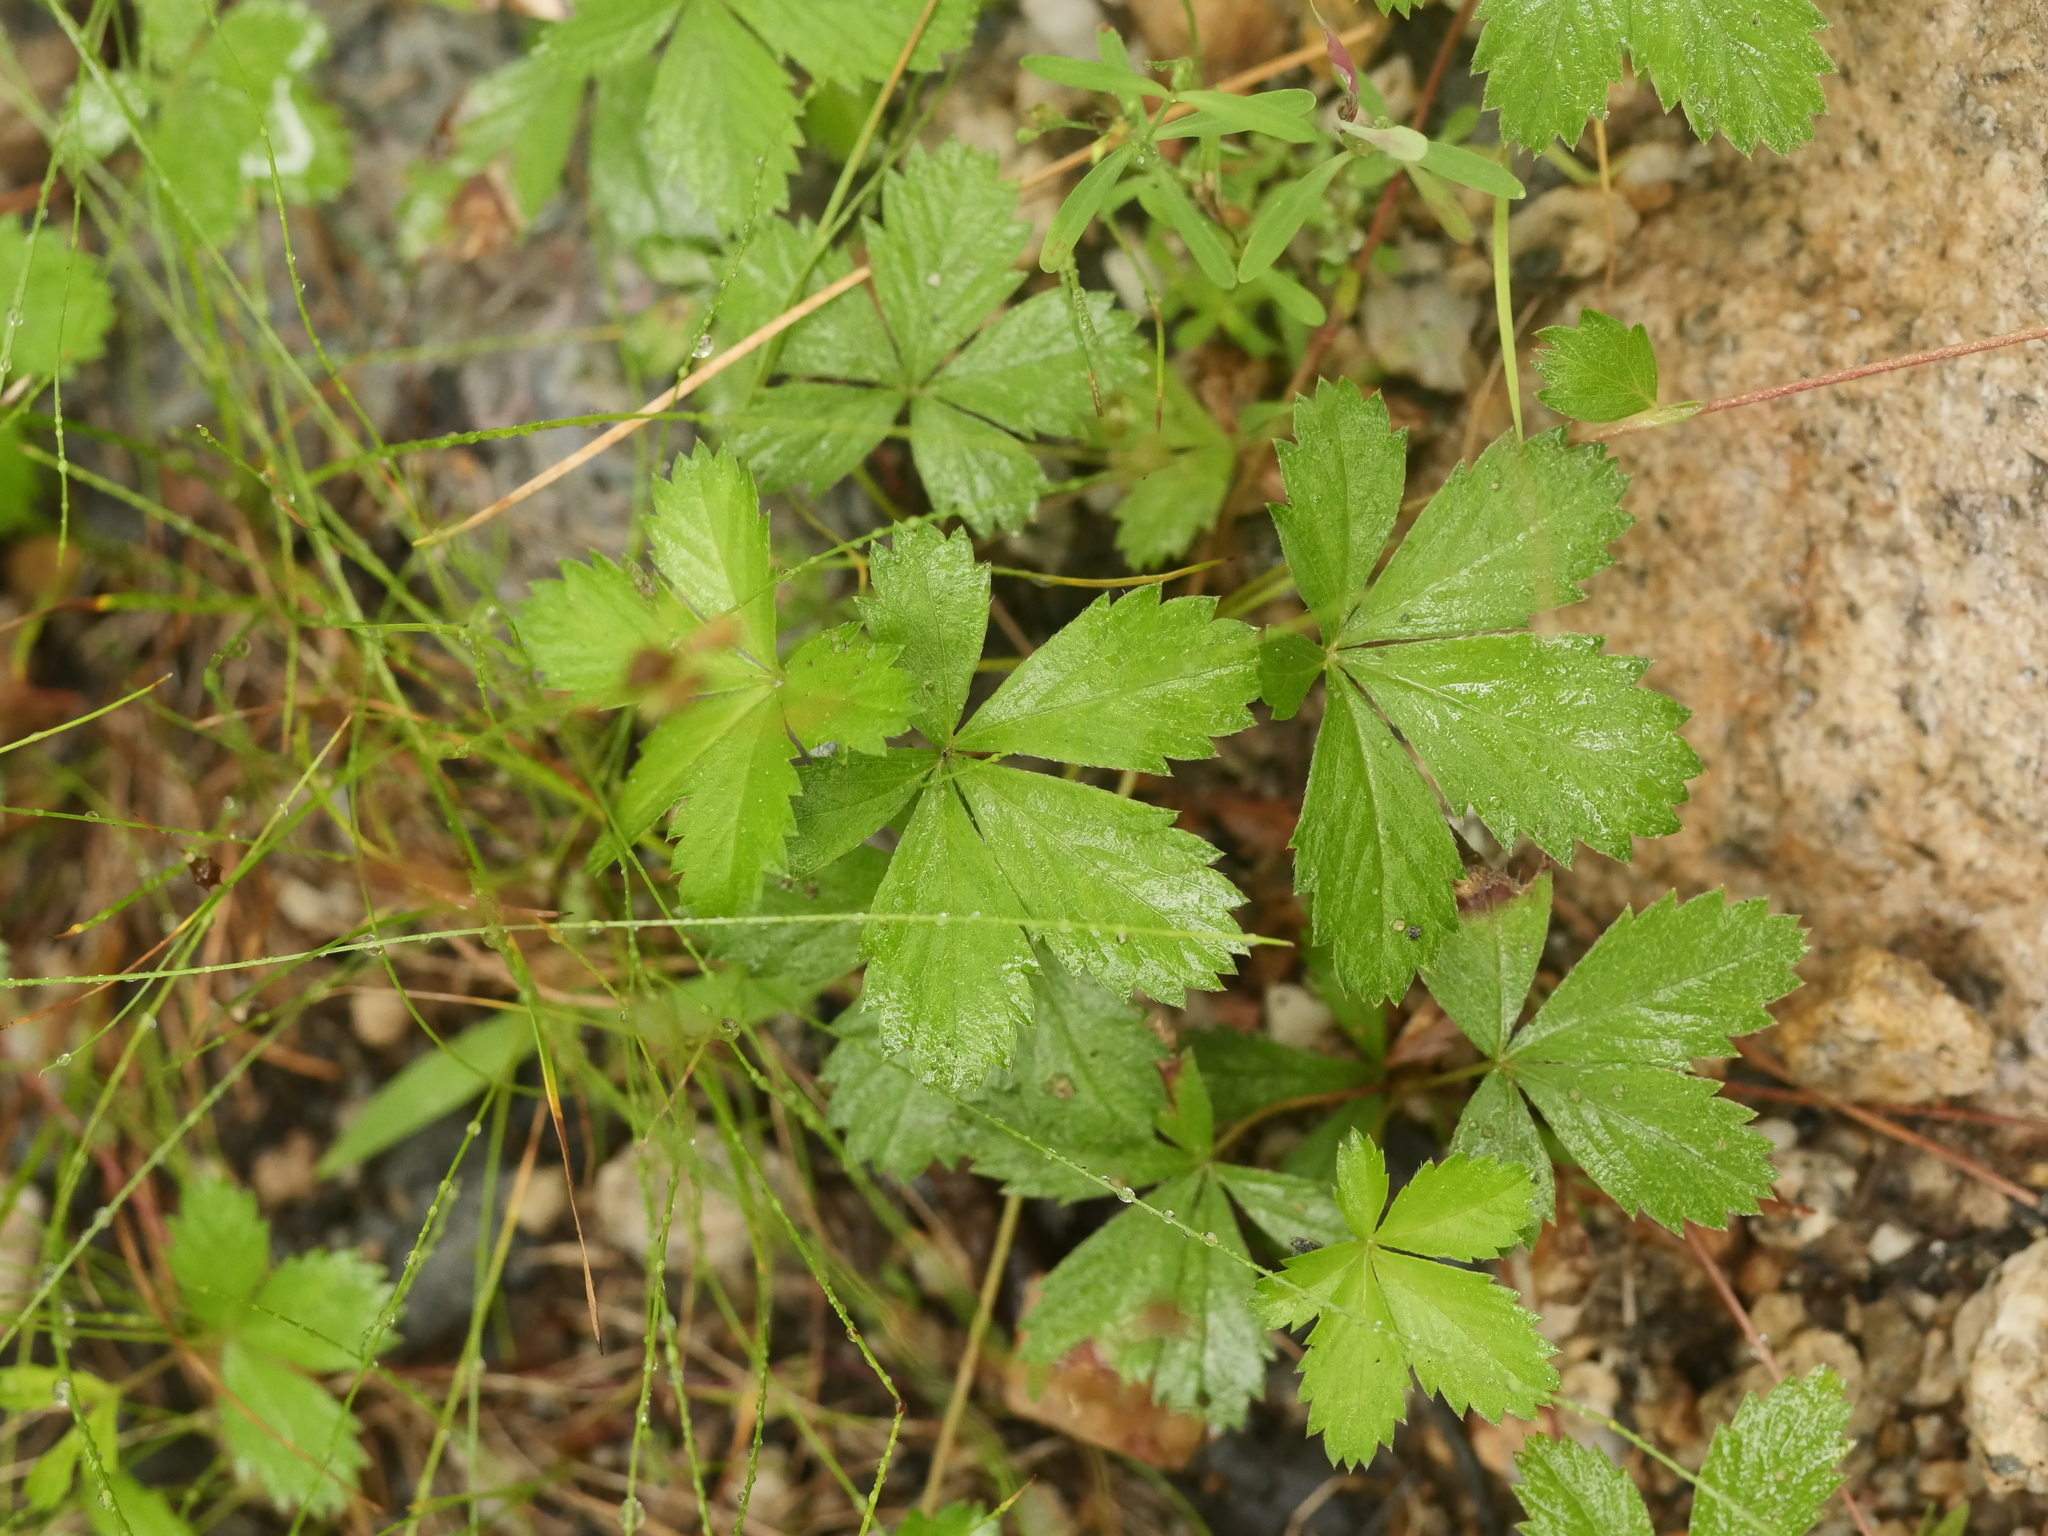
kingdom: Plantae
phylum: Tracheophyta
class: Magnoliopsida
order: Rosales
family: Rosaceae
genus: Potentilla
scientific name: Potentilla canadensis
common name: Canada cinquefoil
